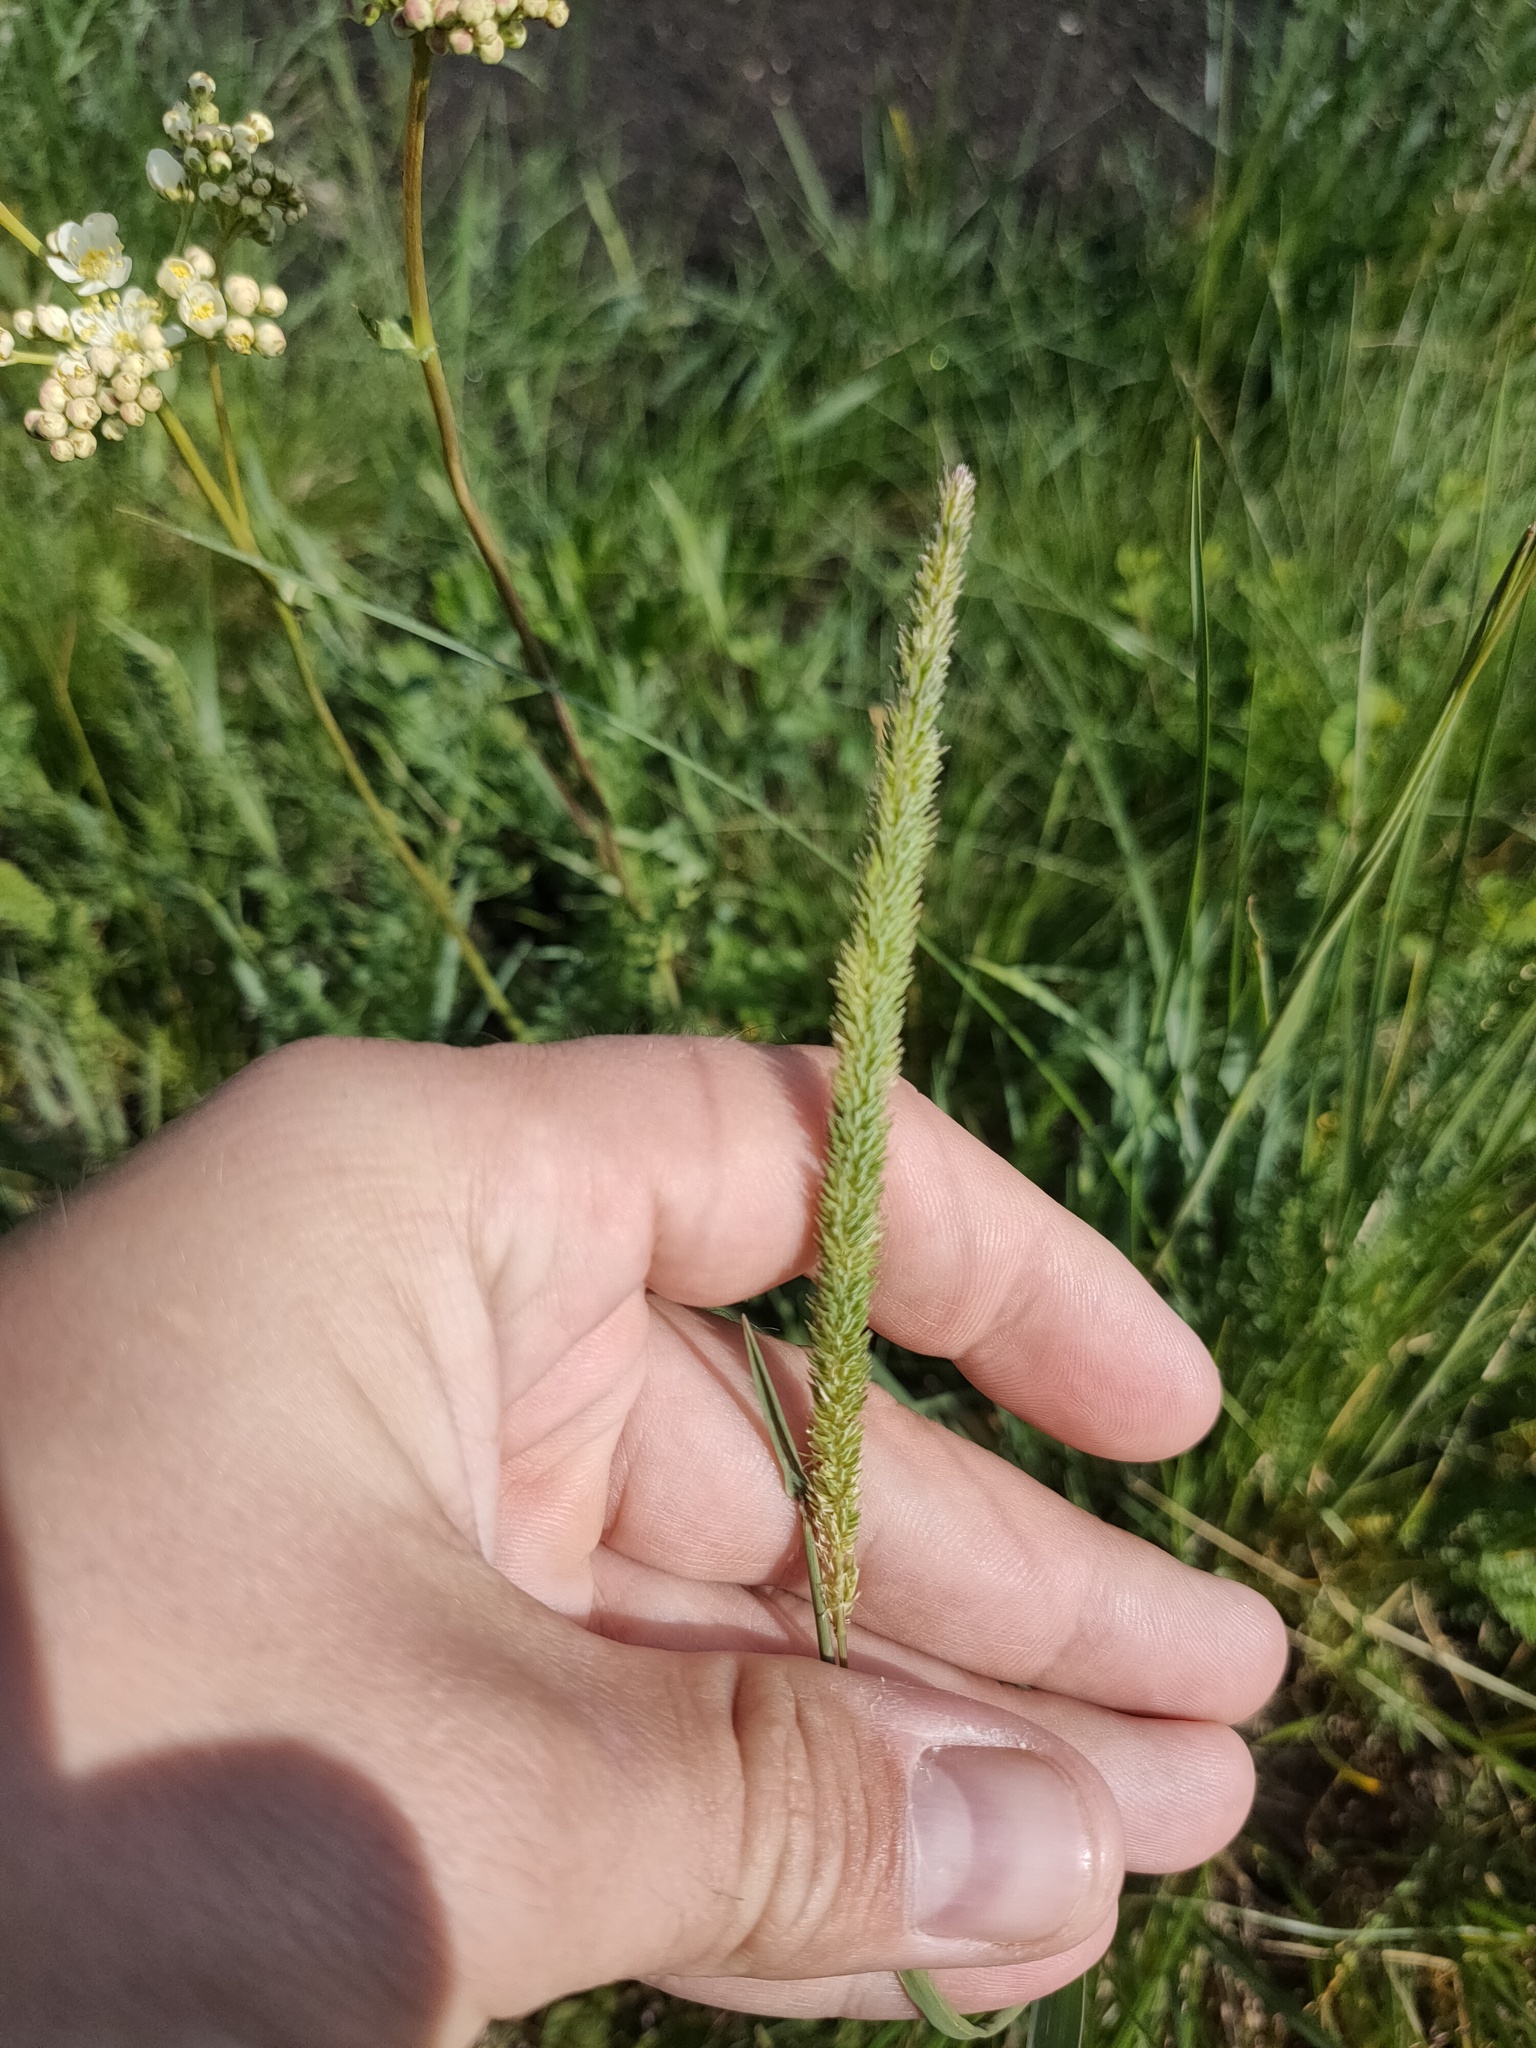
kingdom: Plantae
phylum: Tracheophyta
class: Liliopsida
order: Poales
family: Poaceae
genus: Phleum
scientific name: Phleum phleoides
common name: Purple-stem cat's-tail
